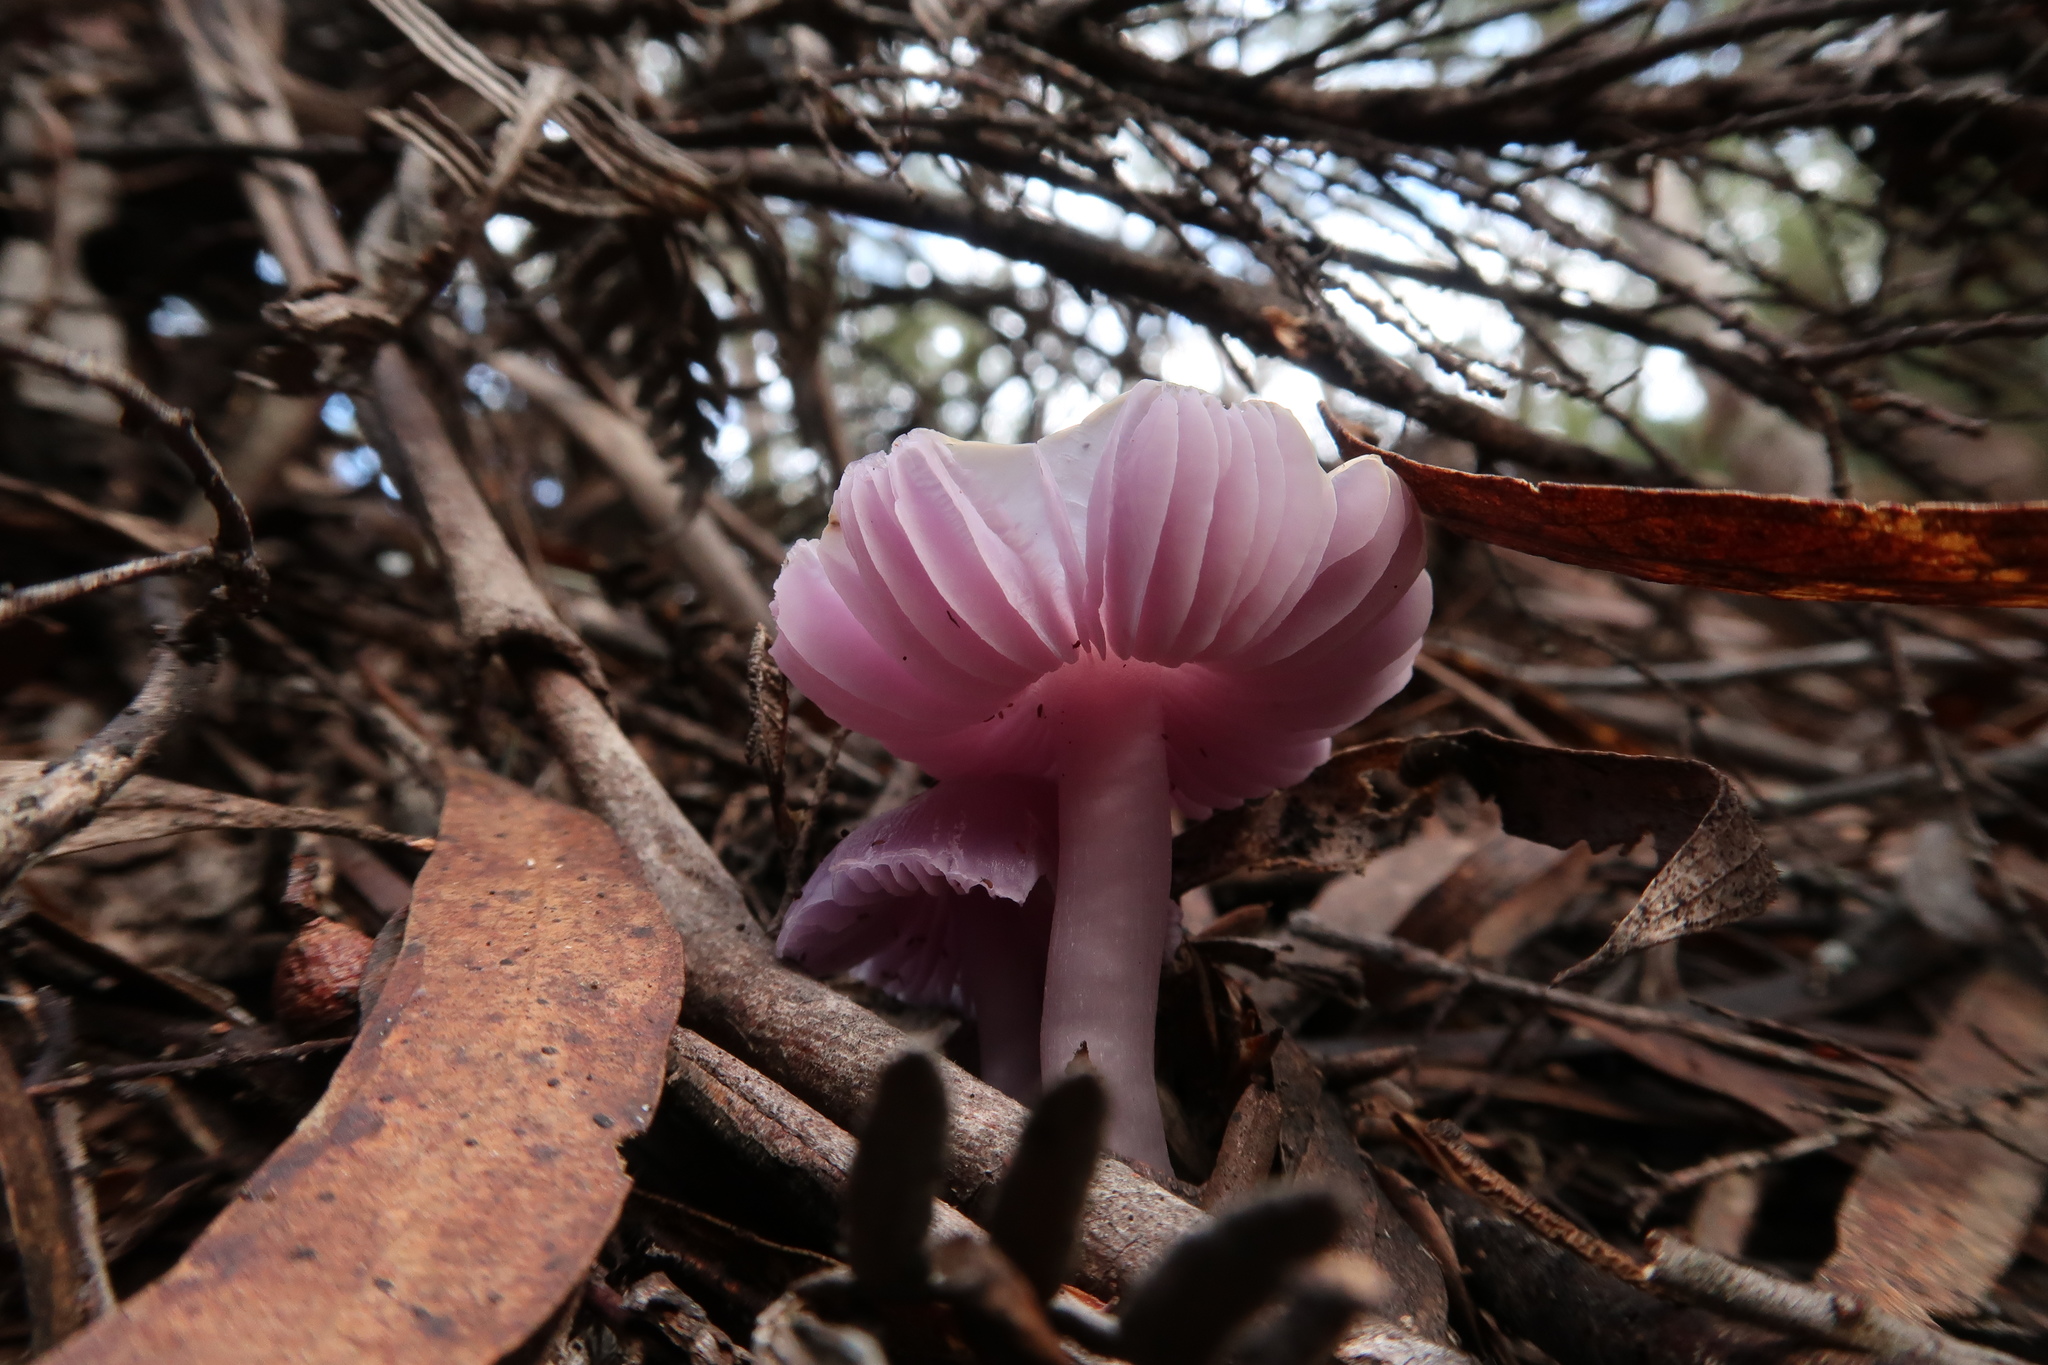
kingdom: Fungi
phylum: Basidiomycota
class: Agaricomycetes
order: Agaricales
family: Hygrophoraceae
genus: Porpolomopsis
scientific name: Porpolomopsis lewelliniae
